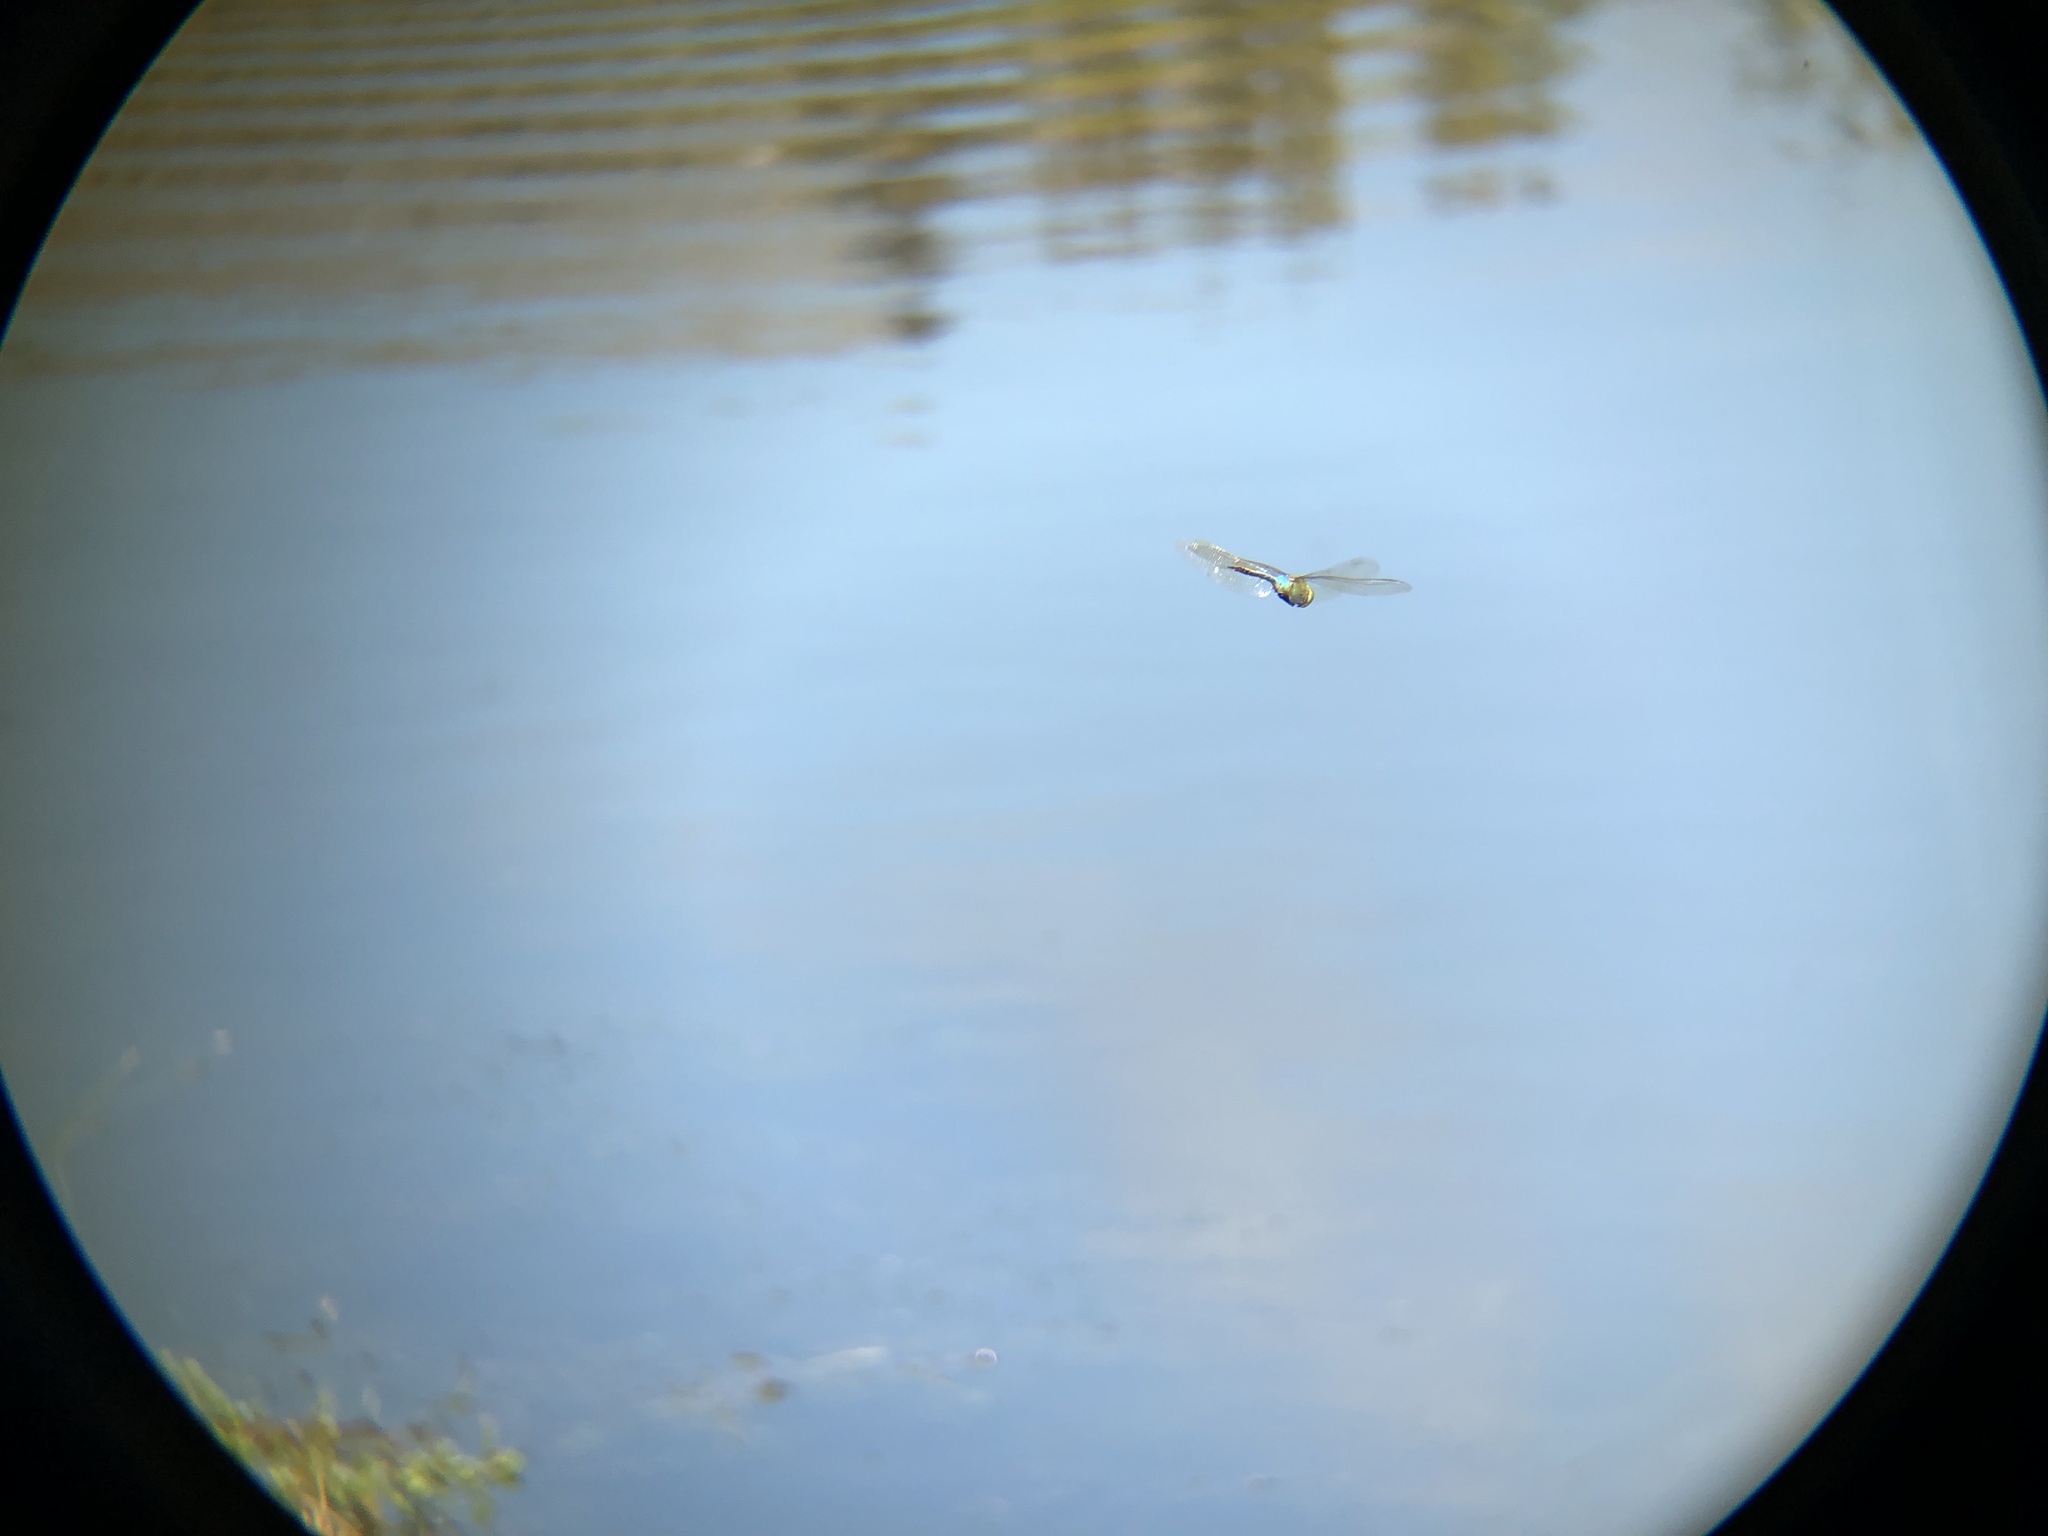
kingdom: Animalia
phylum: Arthropoda
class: Insecta
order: Odonata
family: Aeshnidae
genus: Anax
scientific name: Anax junius
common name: Common green darner
